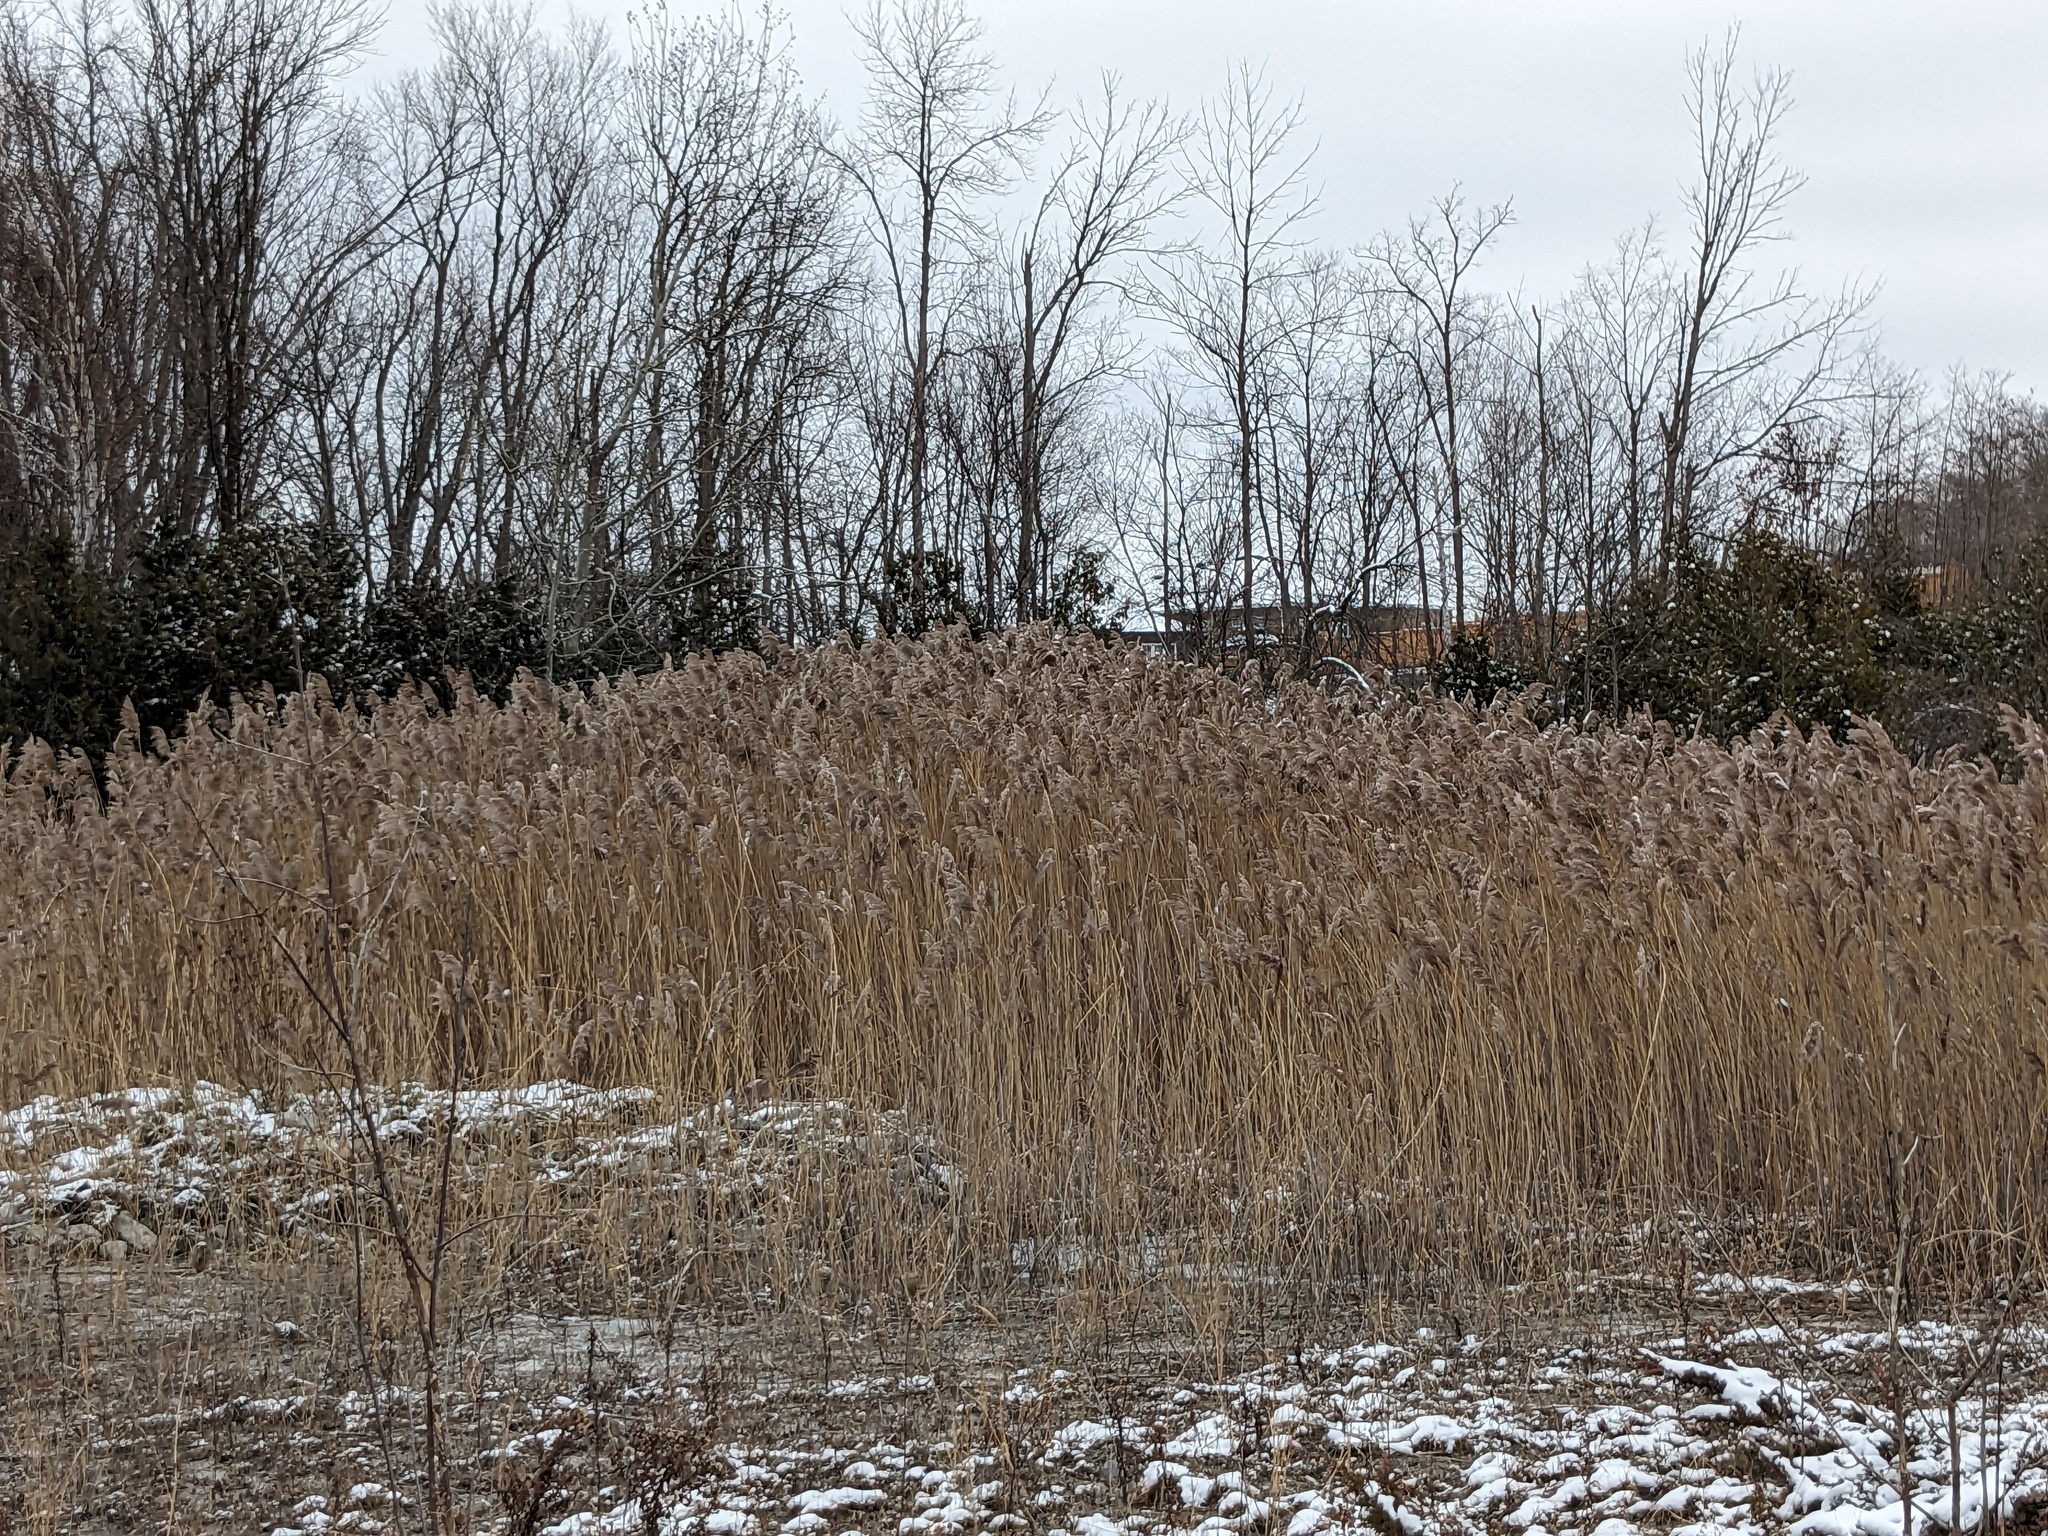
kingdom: Plantae
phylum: Tracheophyta
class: Liliopsida
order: Poales
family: Poaceae
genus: Phragmites
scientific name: Phragmites australis
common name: Common reed
